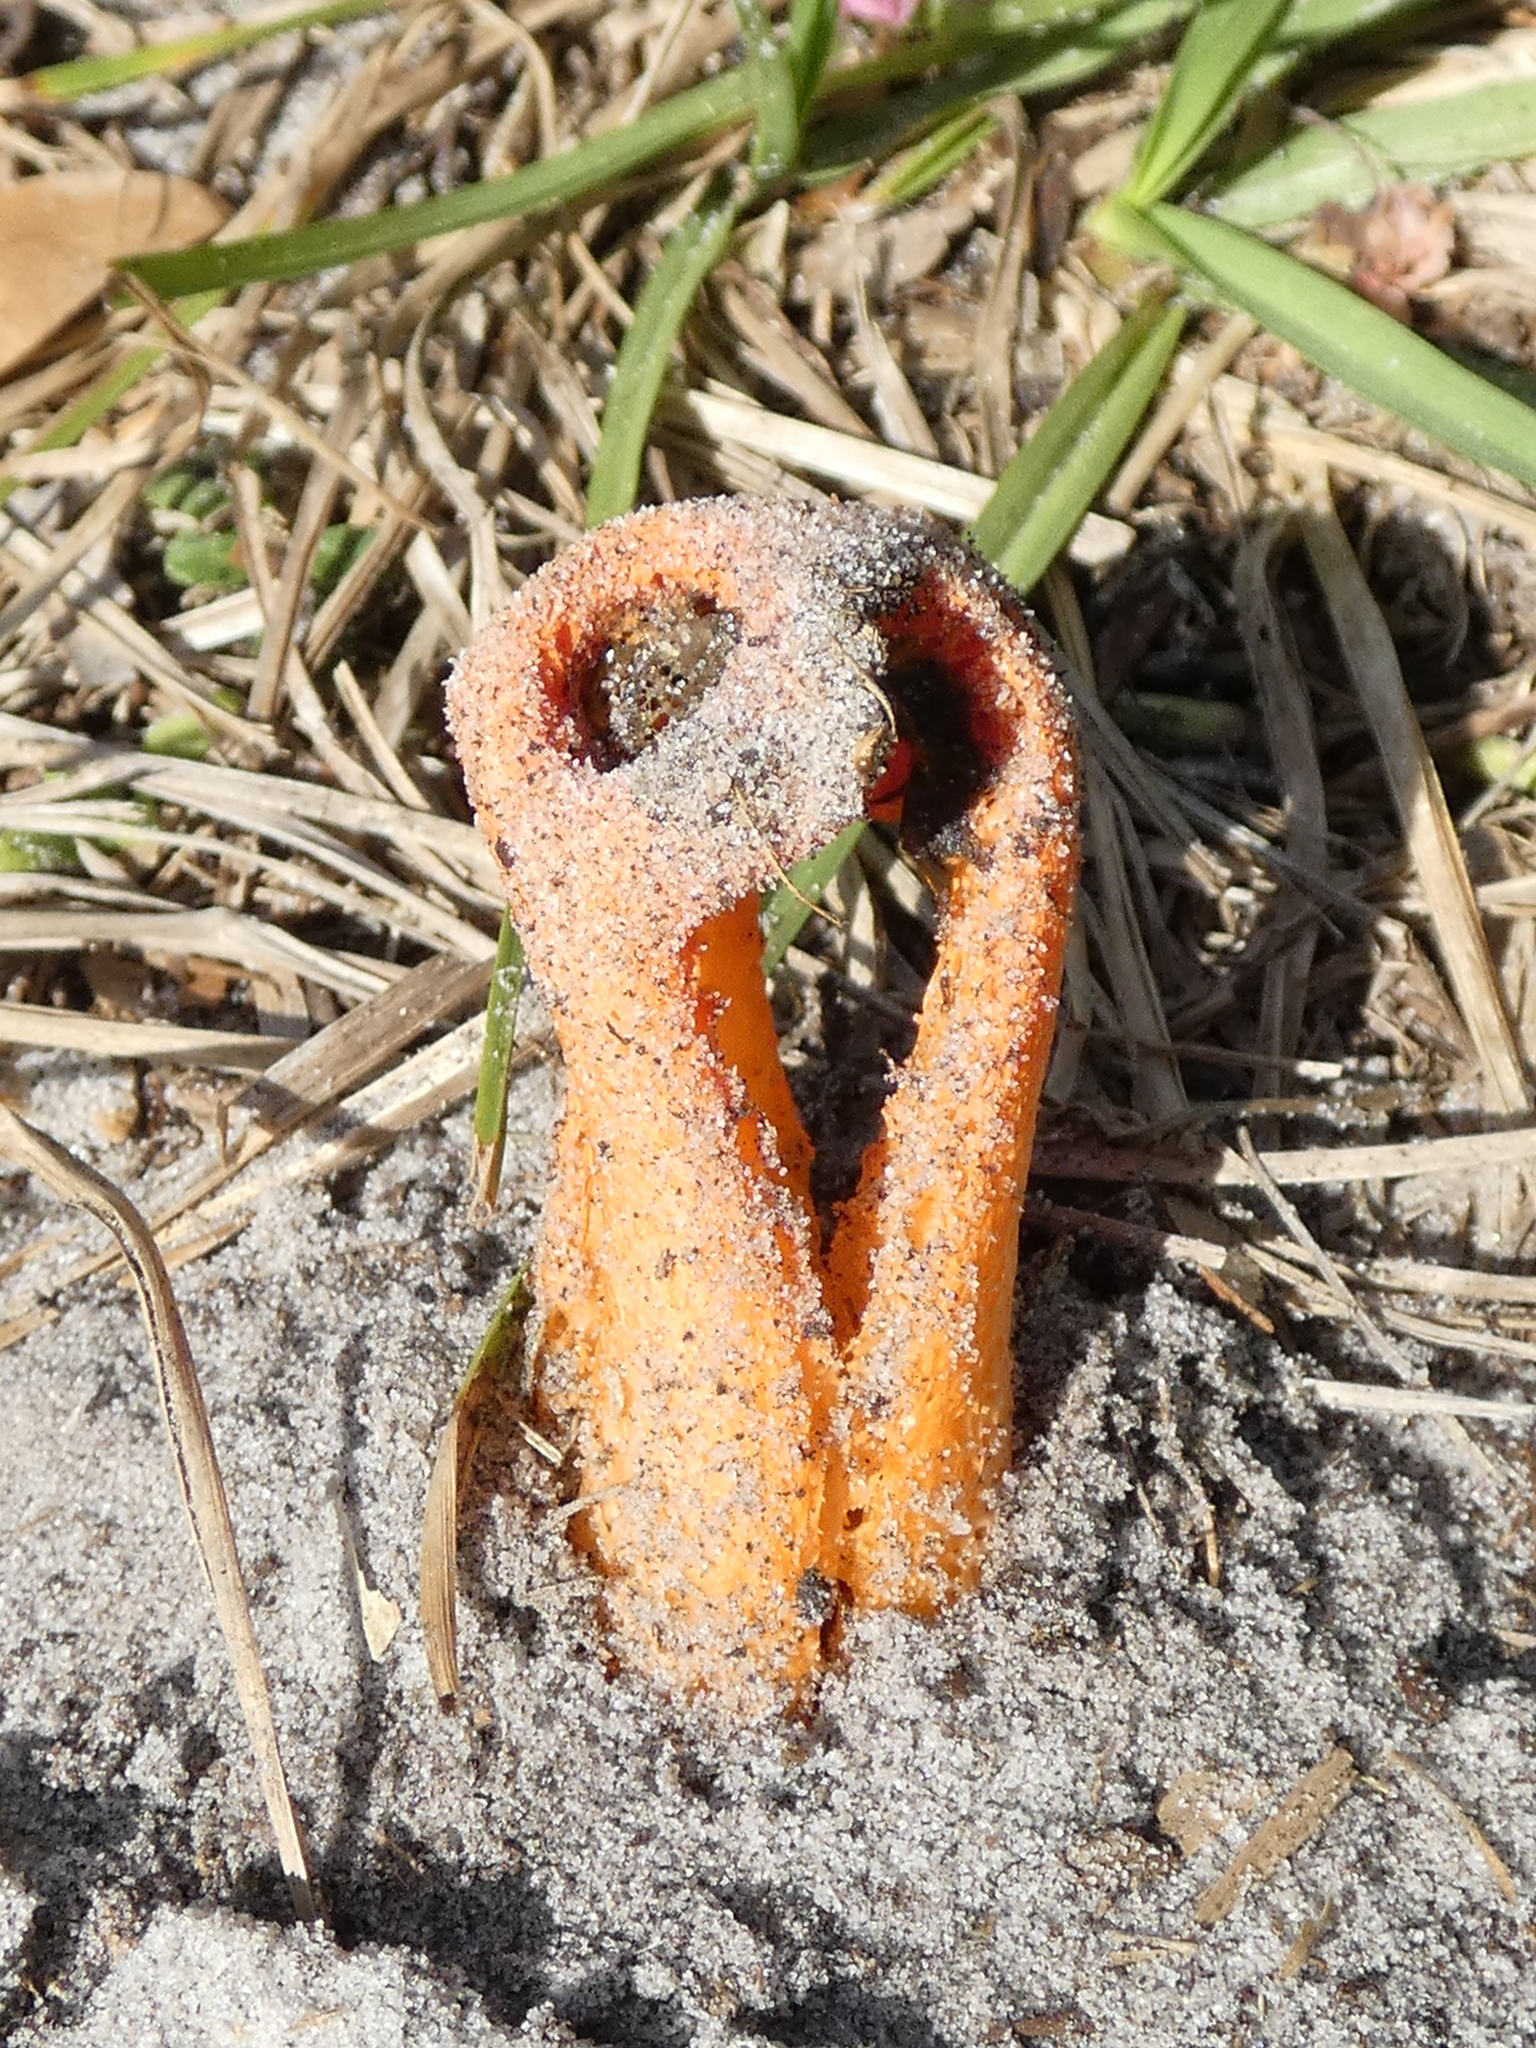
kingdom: Fungi
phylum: Basidiomycota
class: Agaricomycetes
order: Phallales
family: Phallaceae
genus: Clathrus
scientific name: Clathrus columnatus
